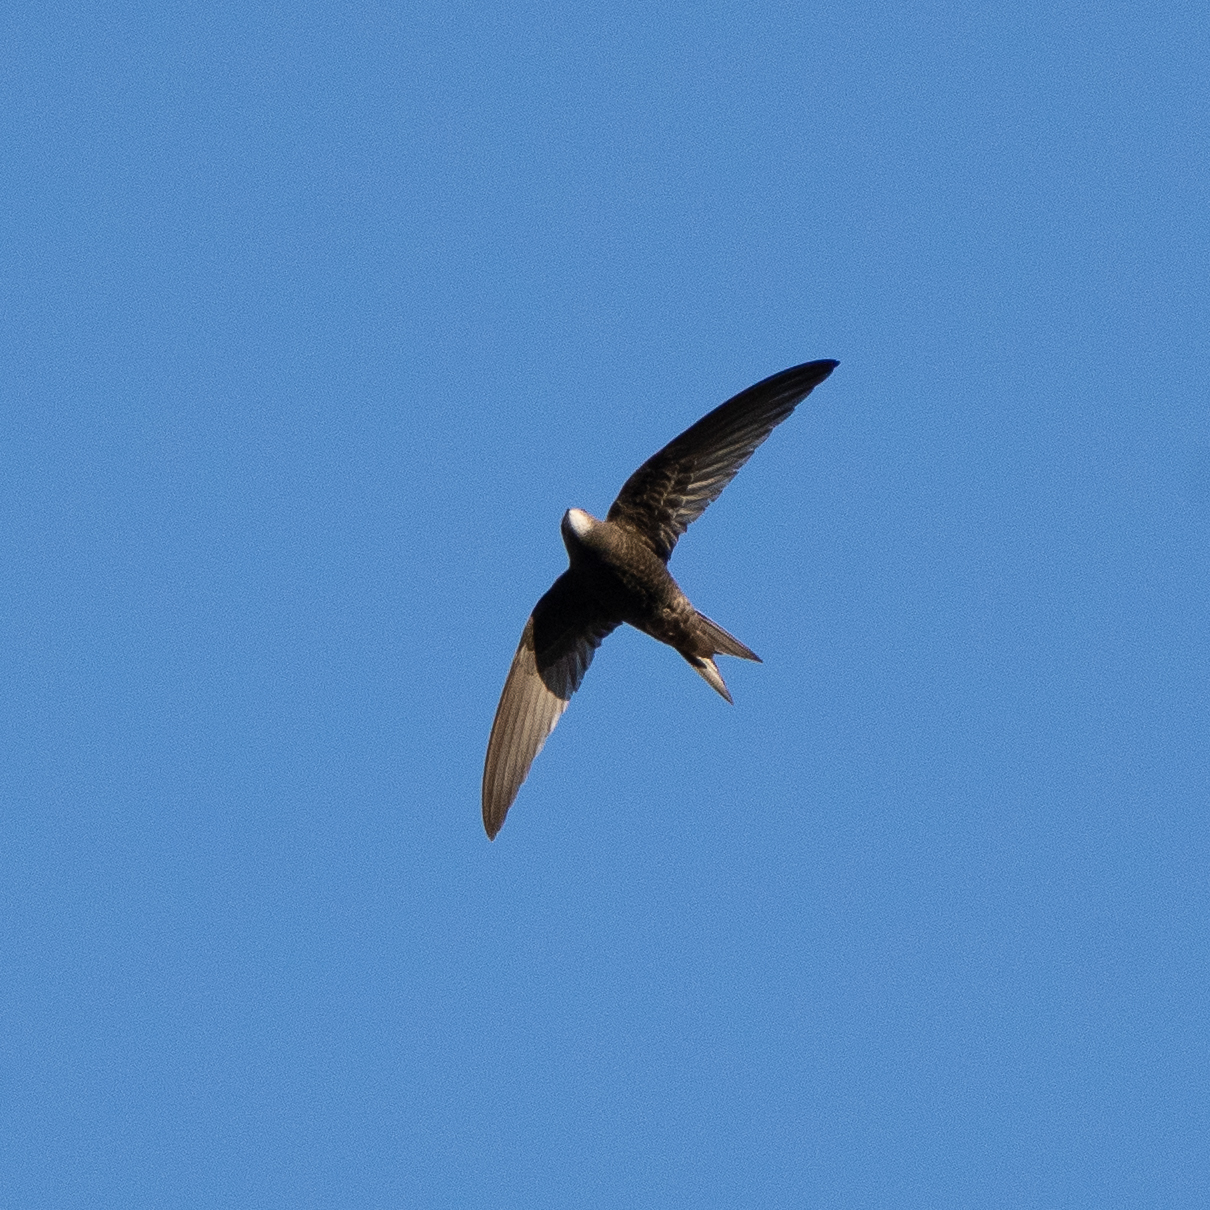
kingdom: Animalia
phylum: Chordata
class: Aves
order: Apodiformes
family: Apodidae
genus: Apus
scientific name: Apus apus
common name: Common swift
